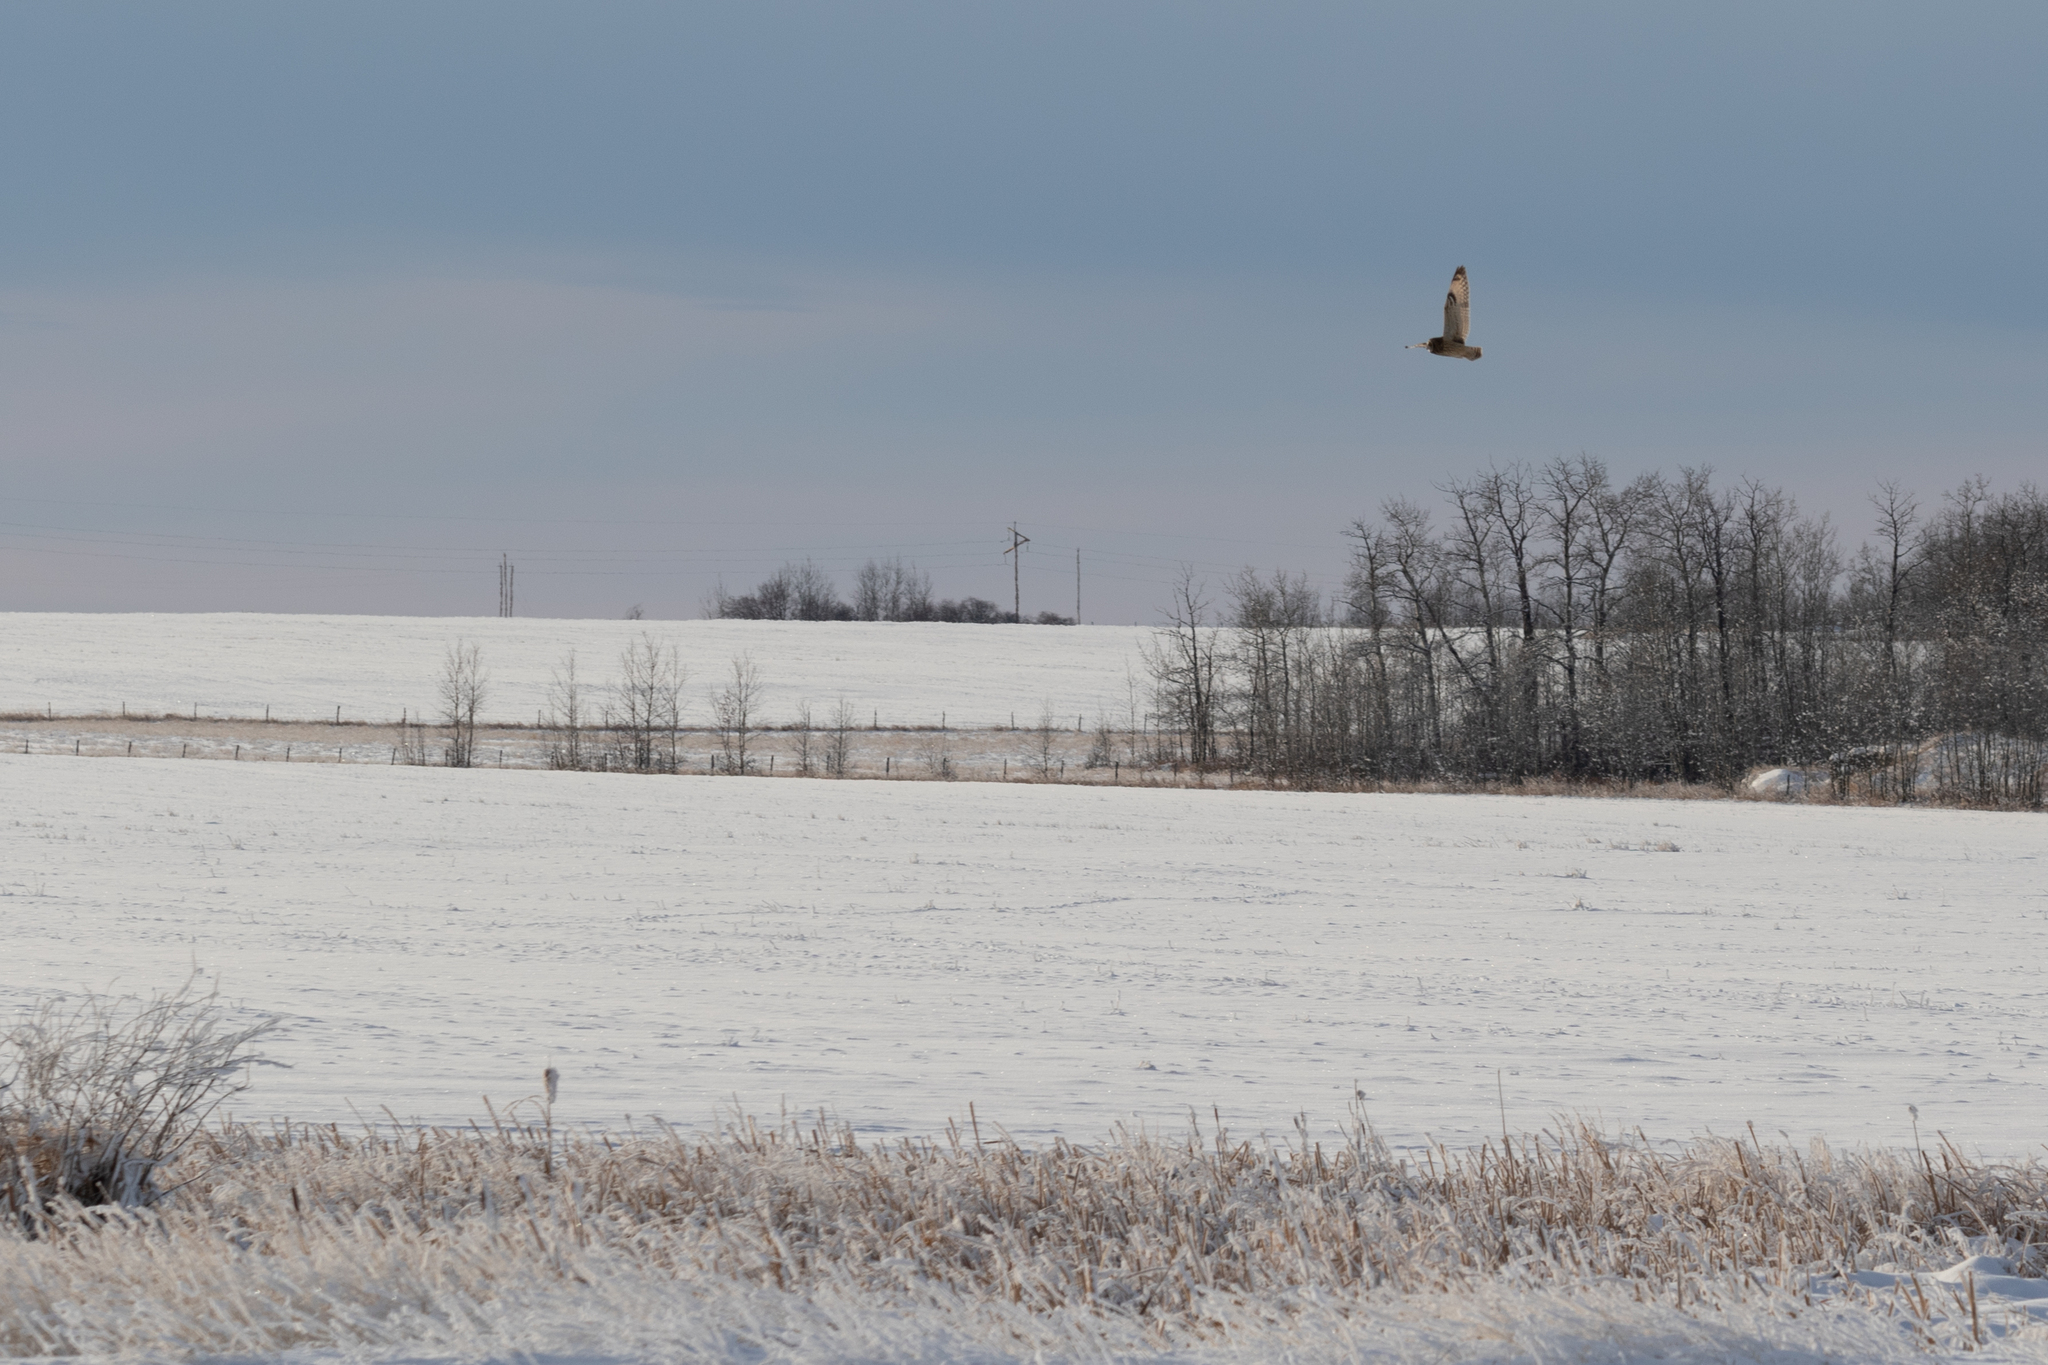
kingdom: Animalia
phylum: Chordata
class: Aves
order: Strigiformes
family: Strigidae
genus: Asio
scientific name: Asio flammeus
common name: Short-eared owl
